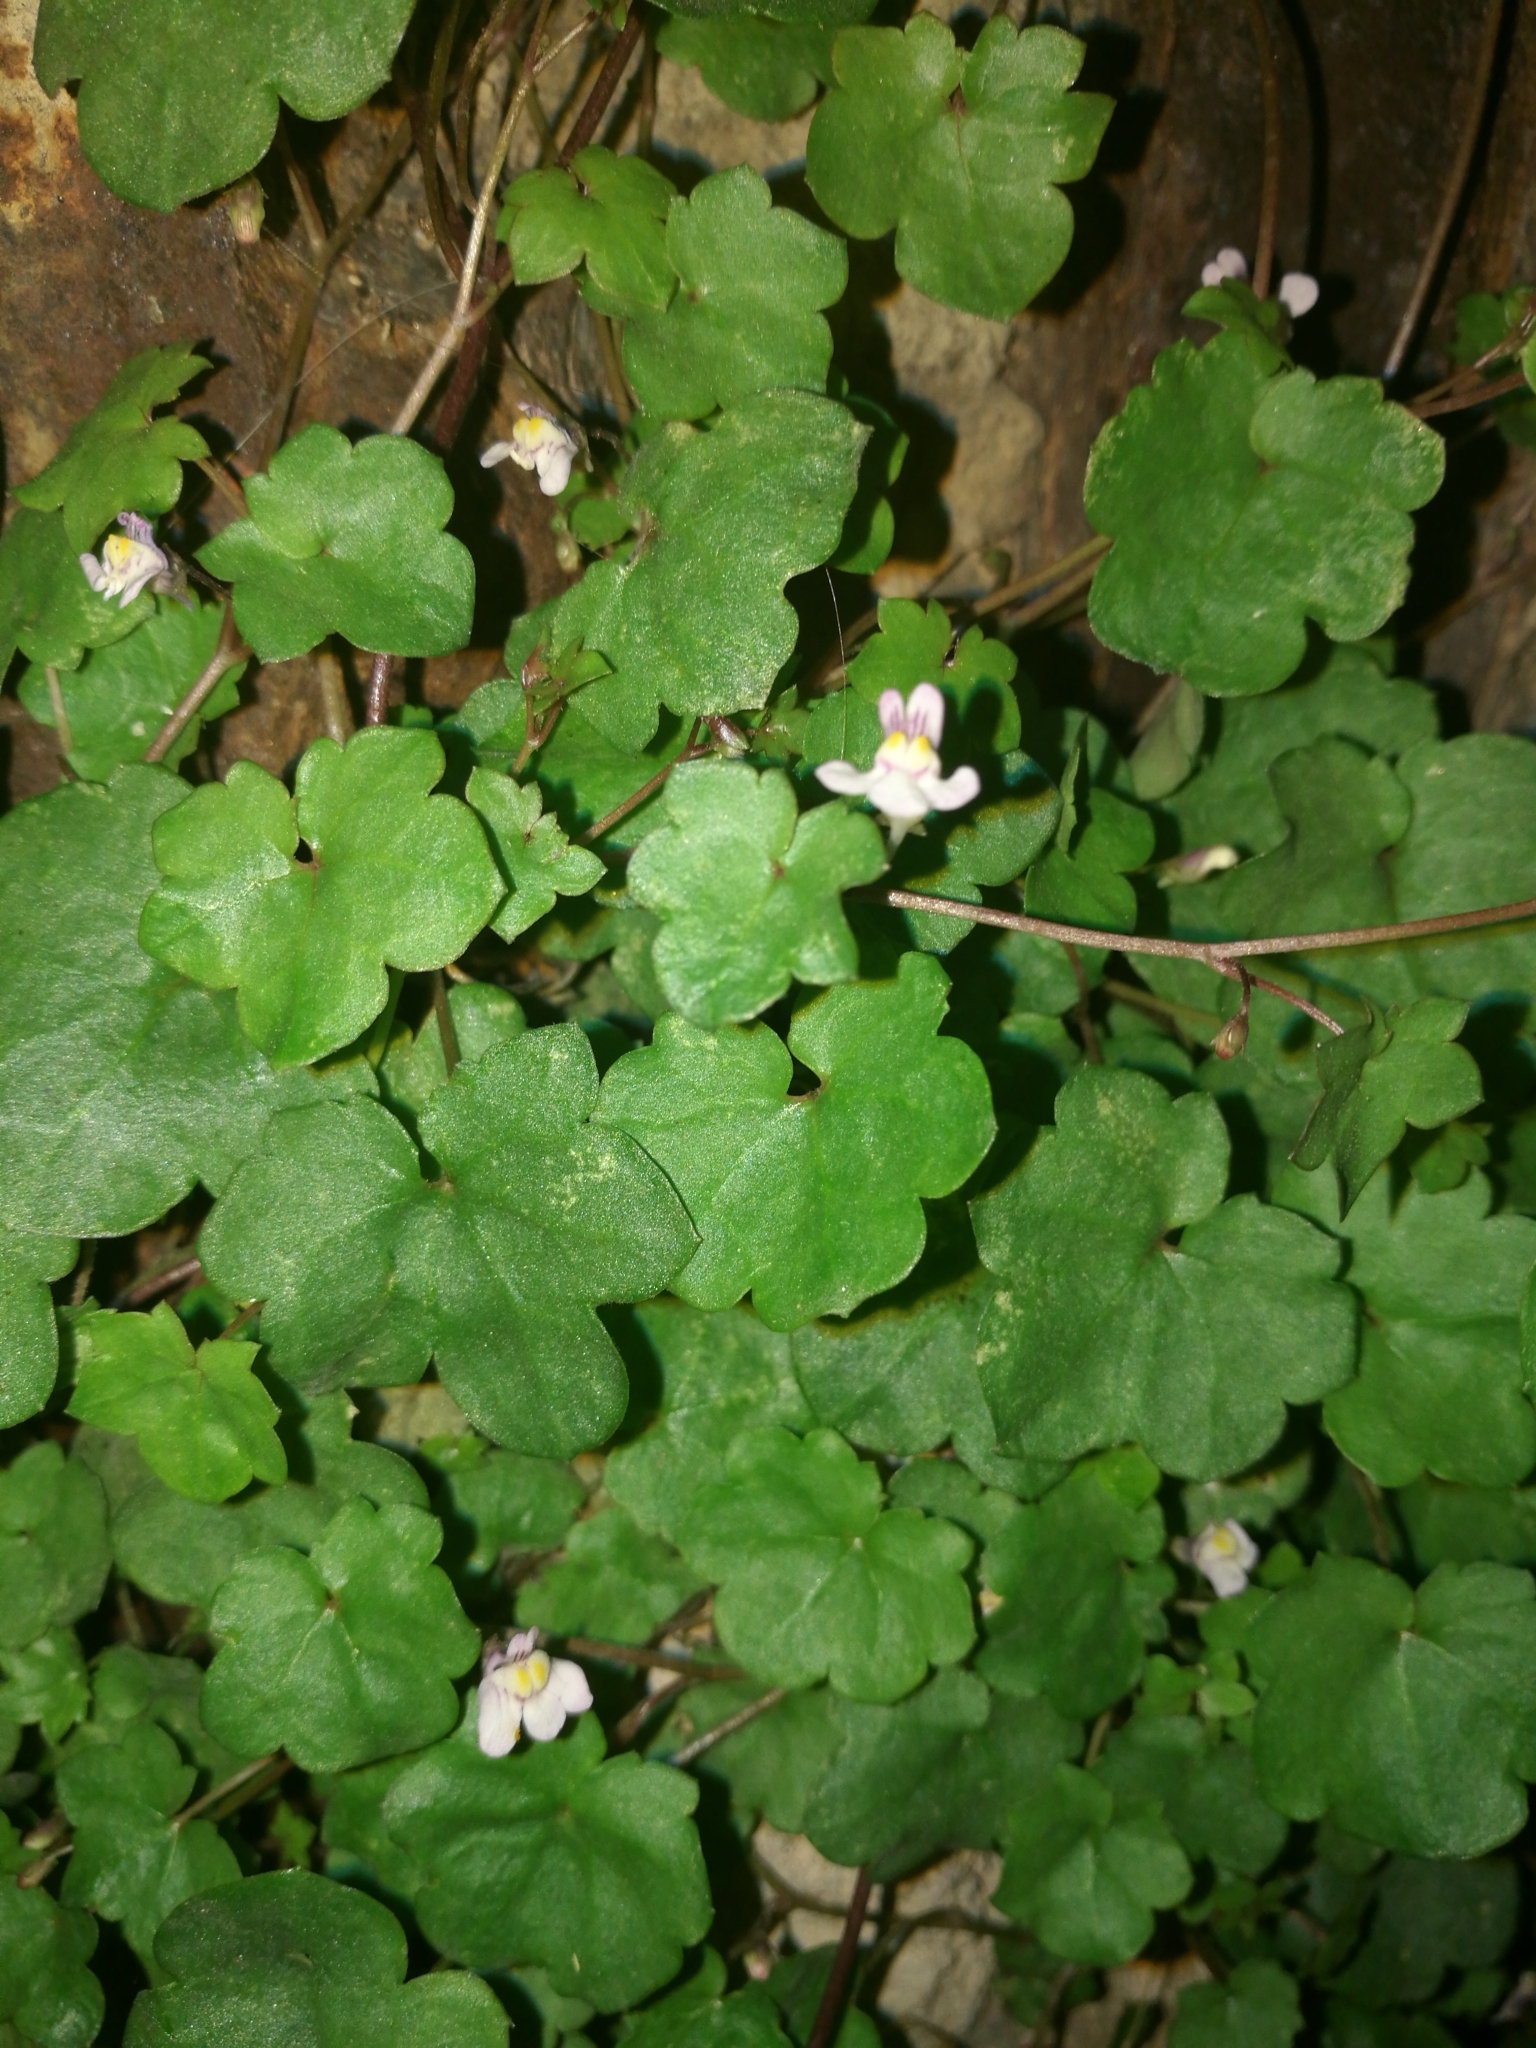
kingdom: Plantae
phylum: Tracheophyta
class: Magnoliopsida
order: Lamiales
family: Plantaginaceae
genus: Cymbalaria
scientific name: Cymbalaria muralis
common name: Ivy-leaved toadflax
